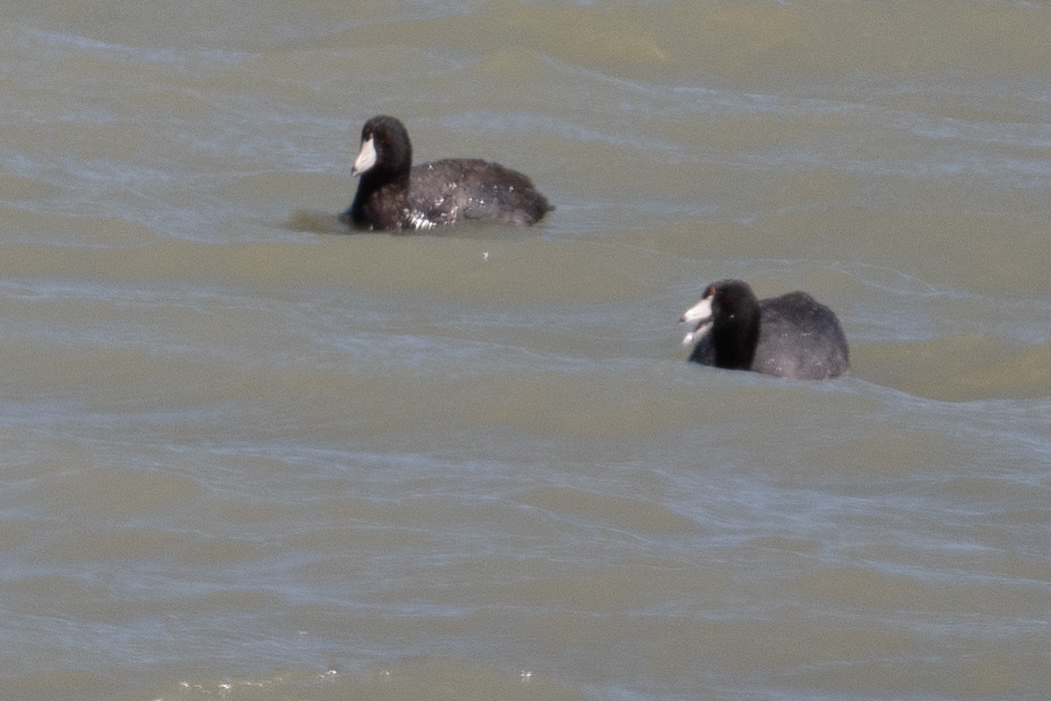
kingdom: Animalia
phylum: Chordata
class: Aves
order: Gruiformes
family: Rallidae
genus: Fulica
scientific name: Fulica americana
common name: American coot
